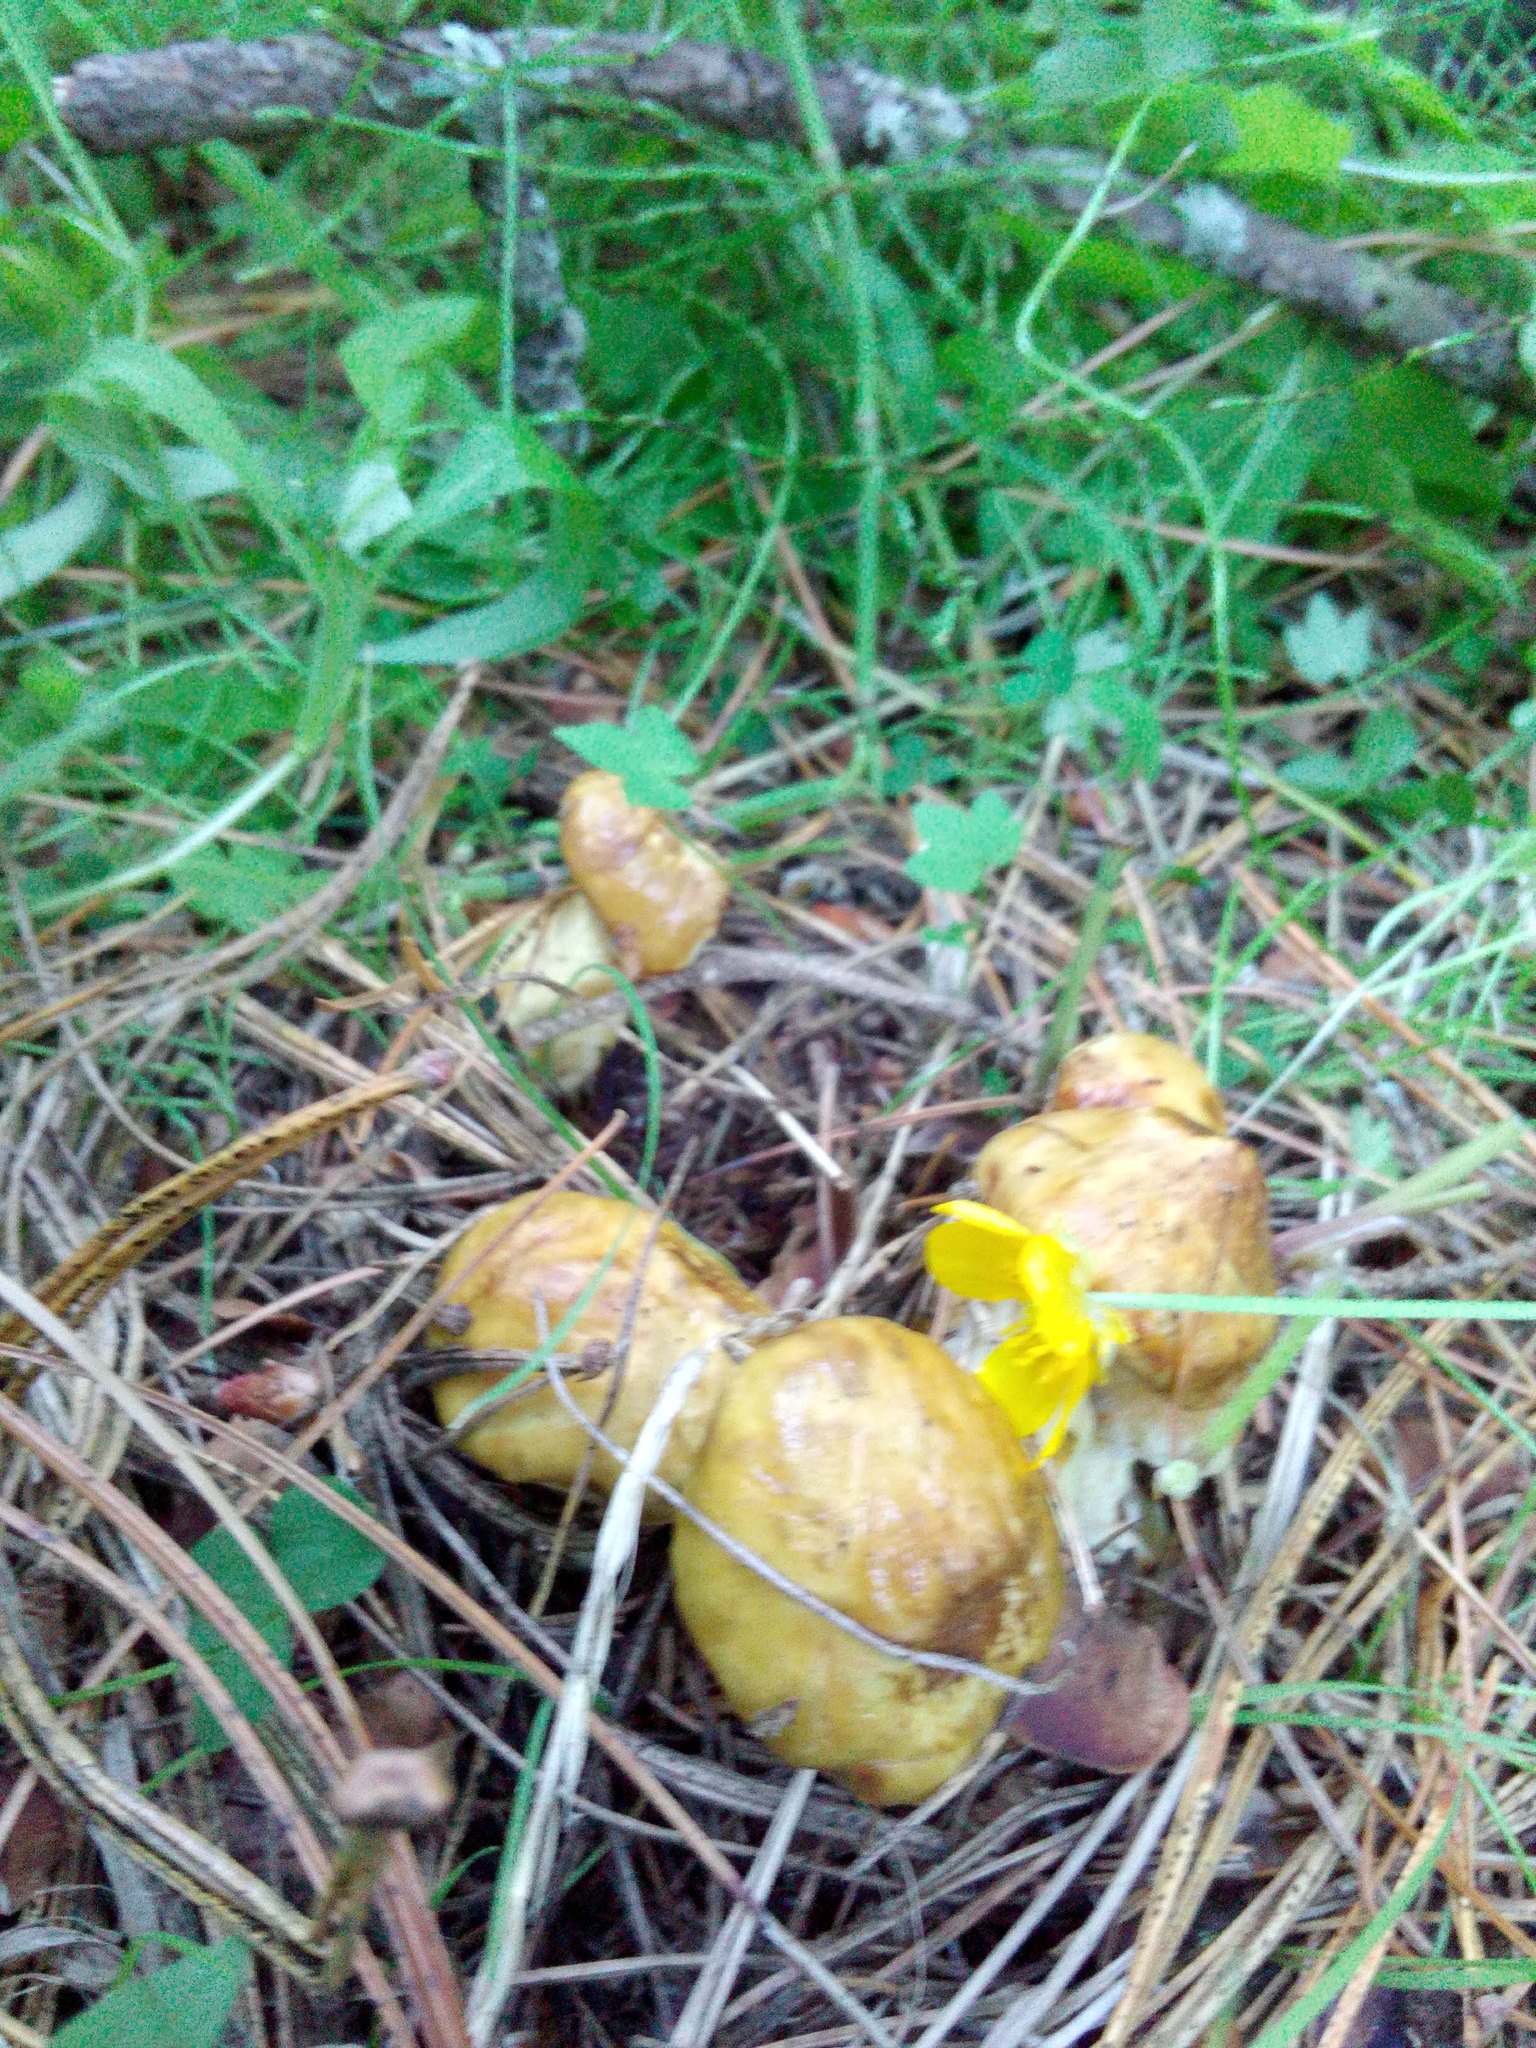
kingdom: Fungi
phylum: Basidiomycota
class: Agaricomycetes
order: Boletales
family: Suillaceae
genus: Suillus
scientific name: Suillus americanus
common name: Chicken fat mushroom
